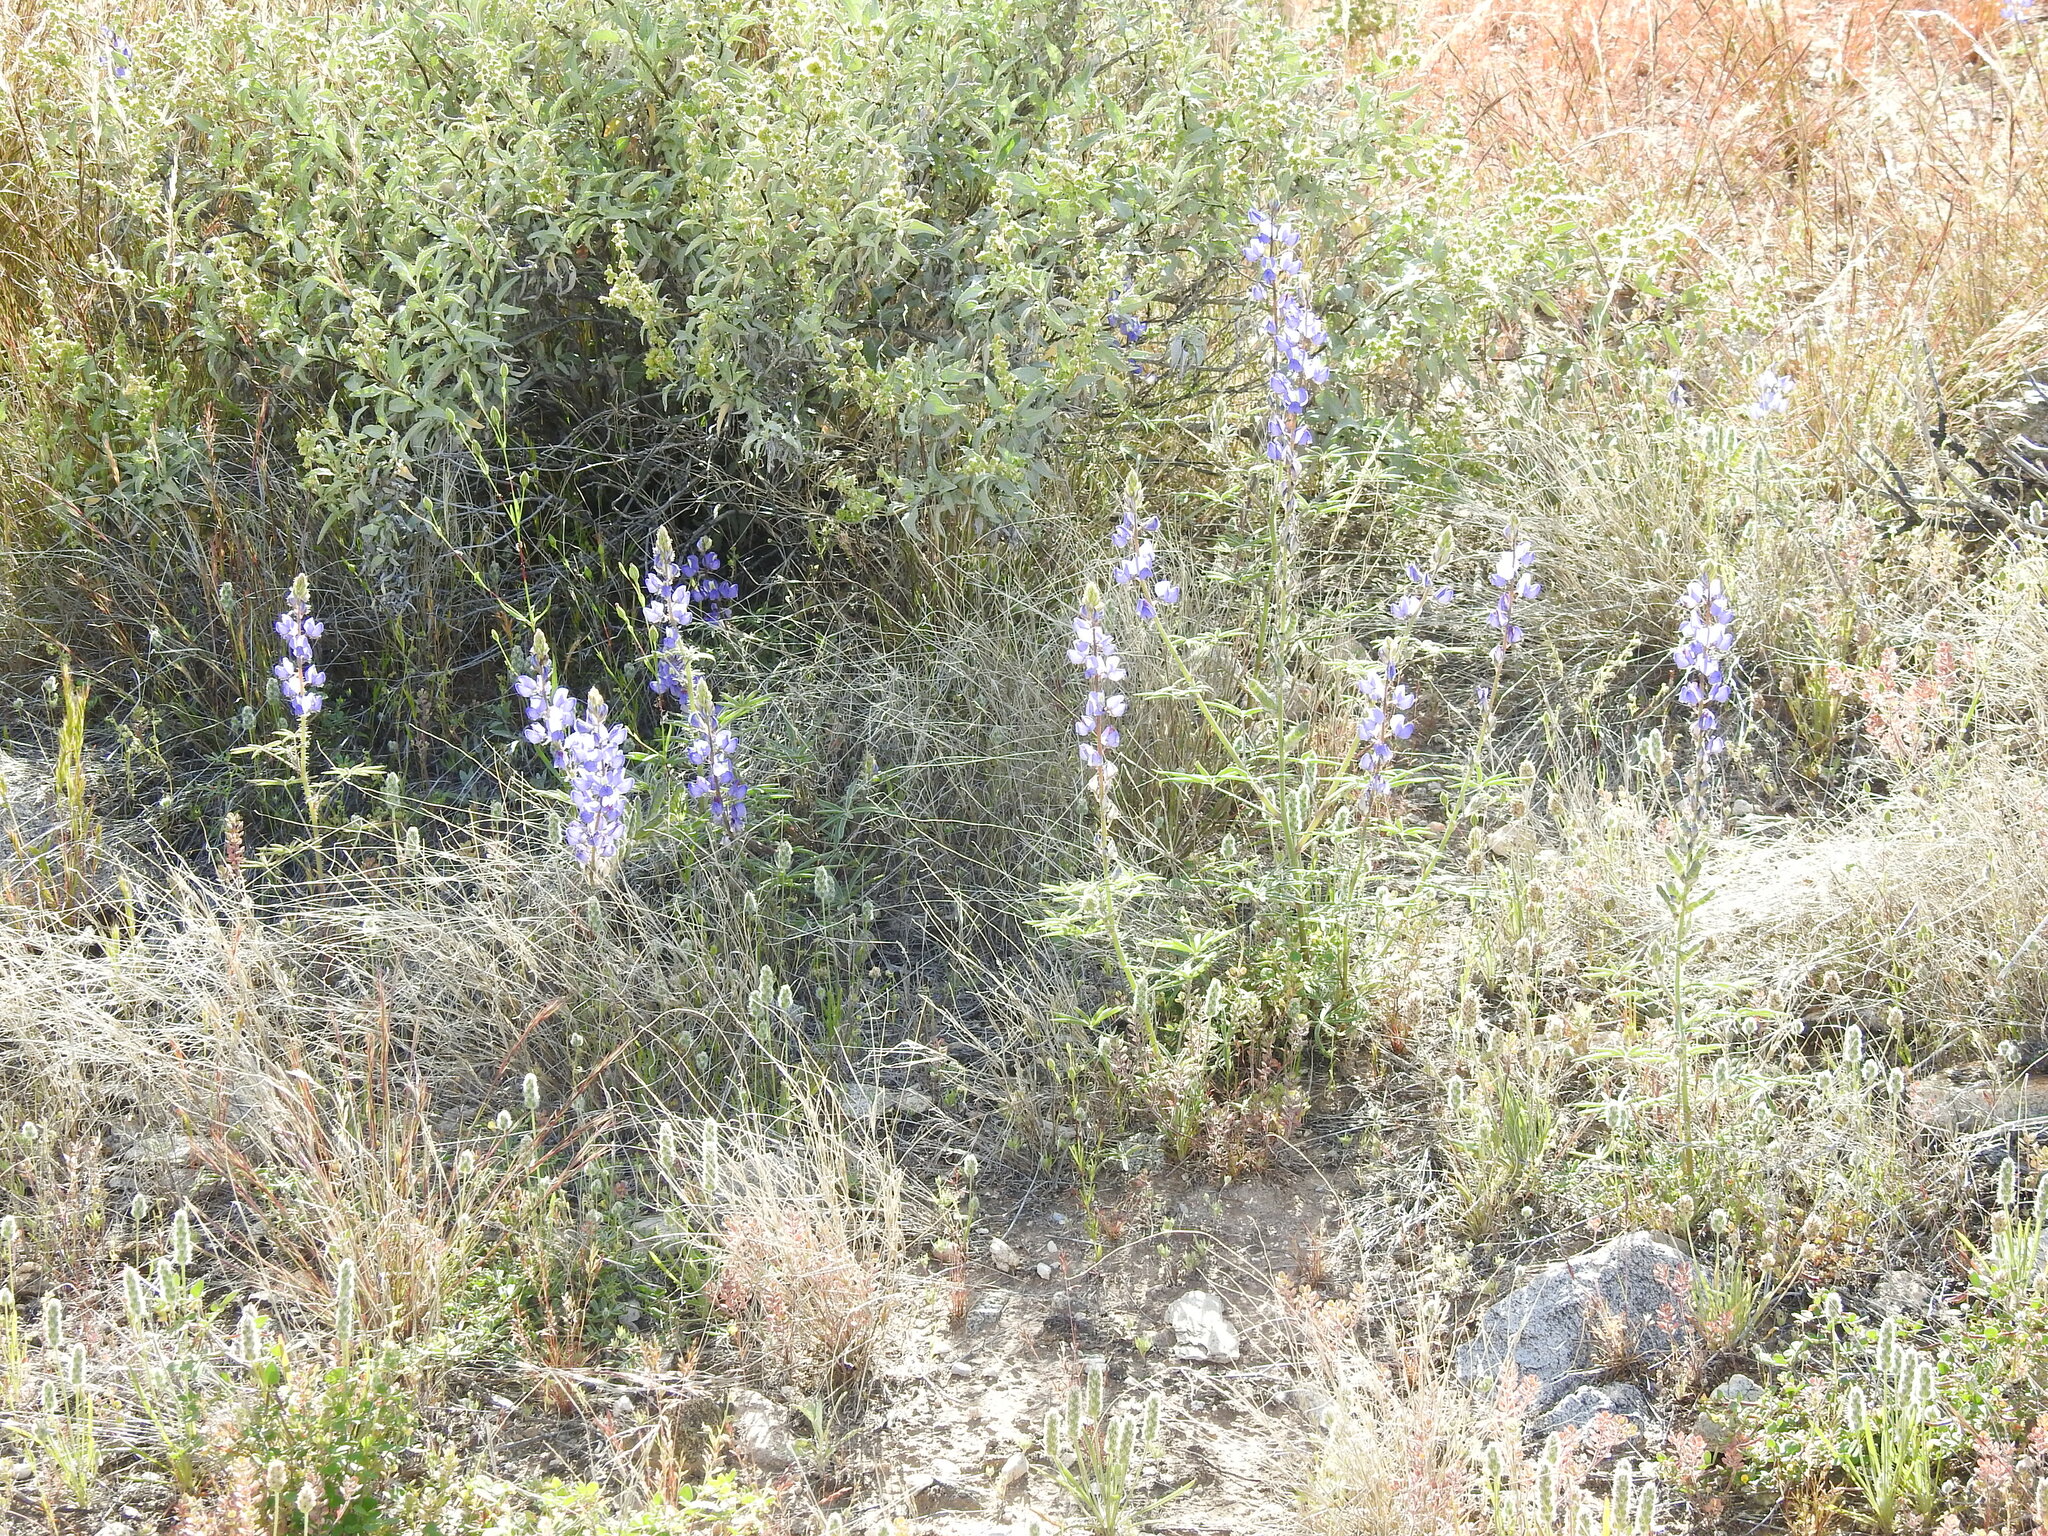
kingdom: Plantae
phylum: Tracheophyta
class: Magnoliopsida
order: Fabales
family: Fabaceae
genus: Lupinus
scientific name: Lupinus sparsiflorus
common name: Coulter's lupine
